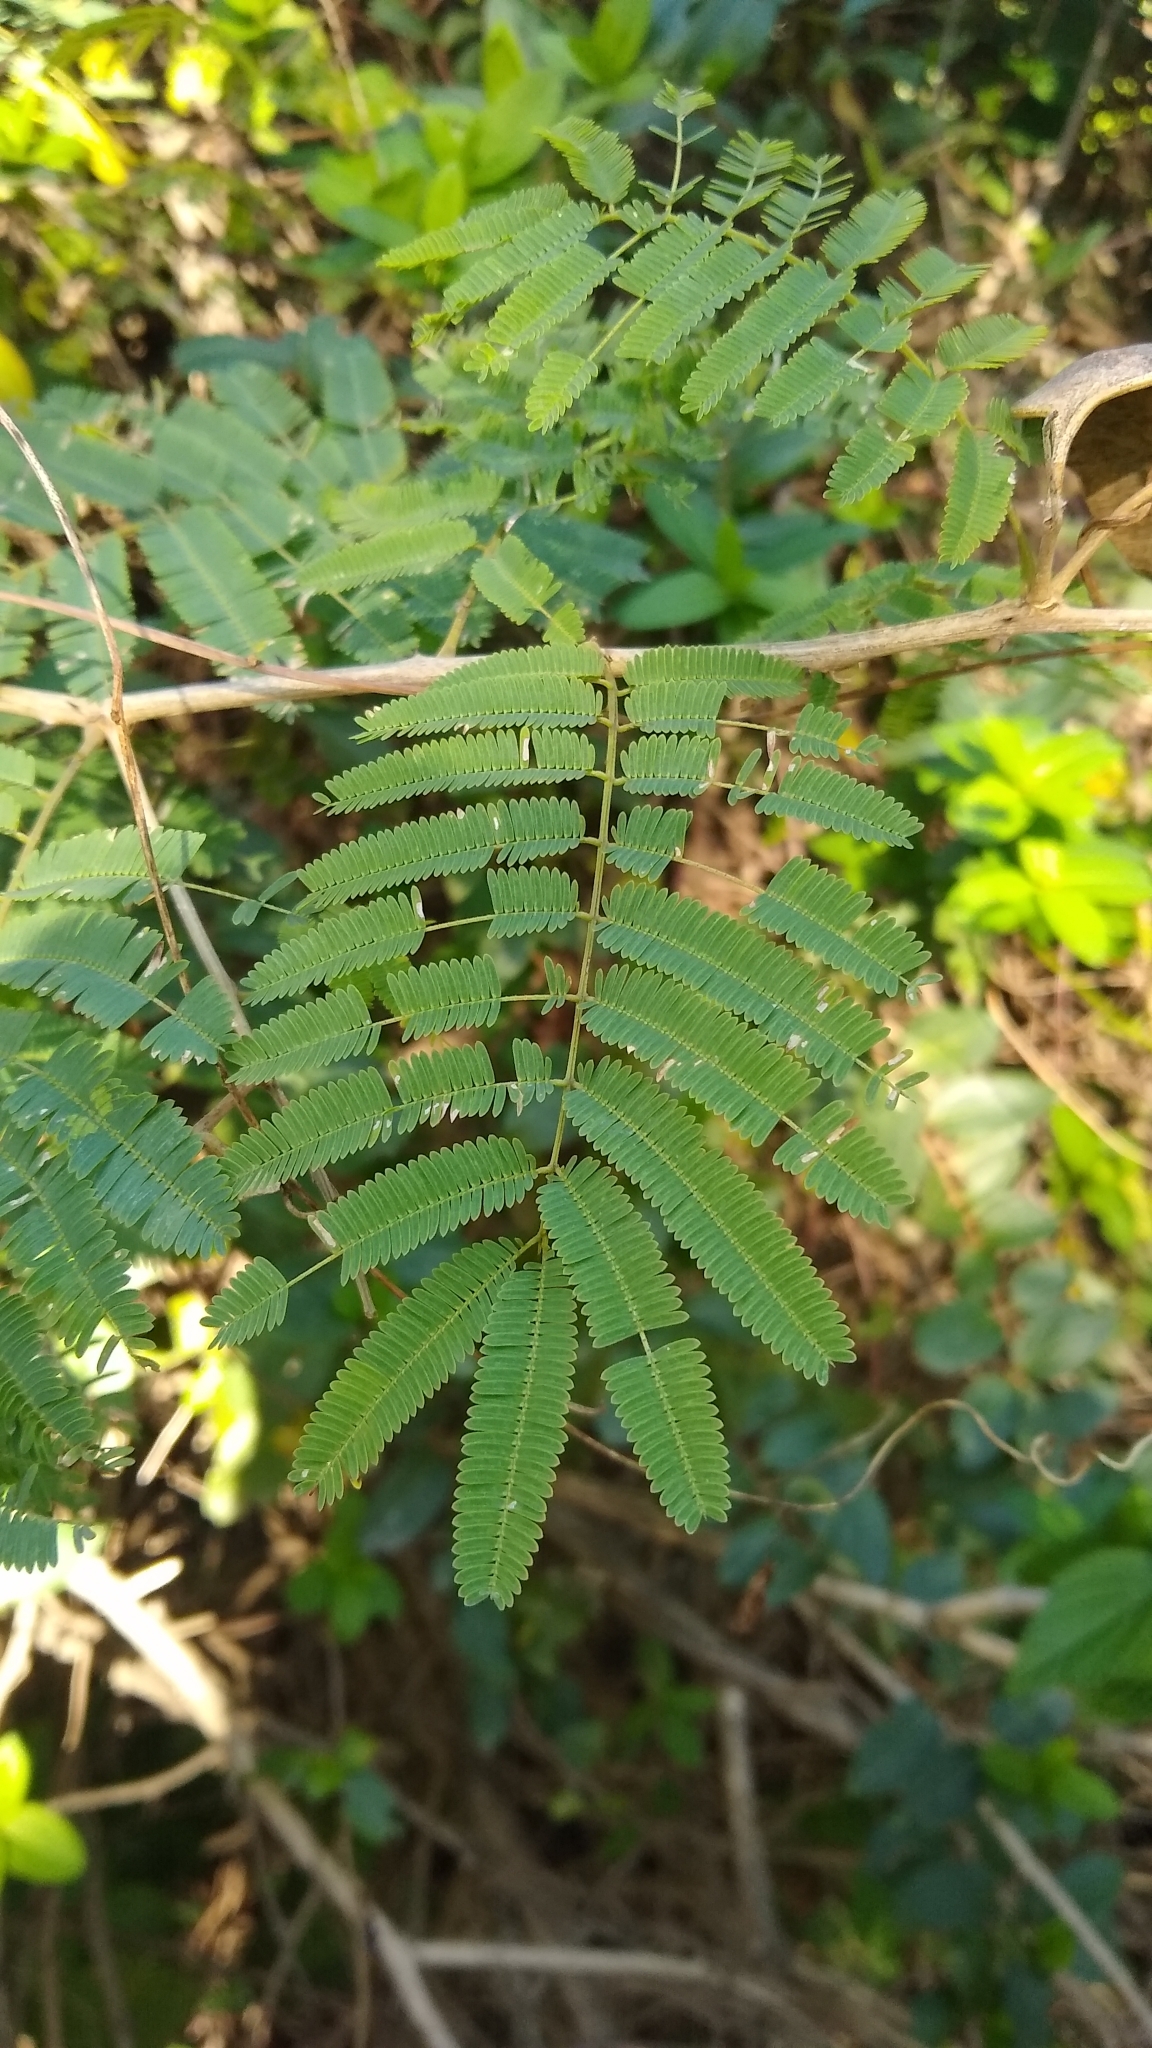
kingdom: Plantae
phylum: Tracheophyta
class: Magnoliopsida
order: Fabales
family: Fabaceae
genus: Senegalia
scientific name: Senegalia bonariensis
